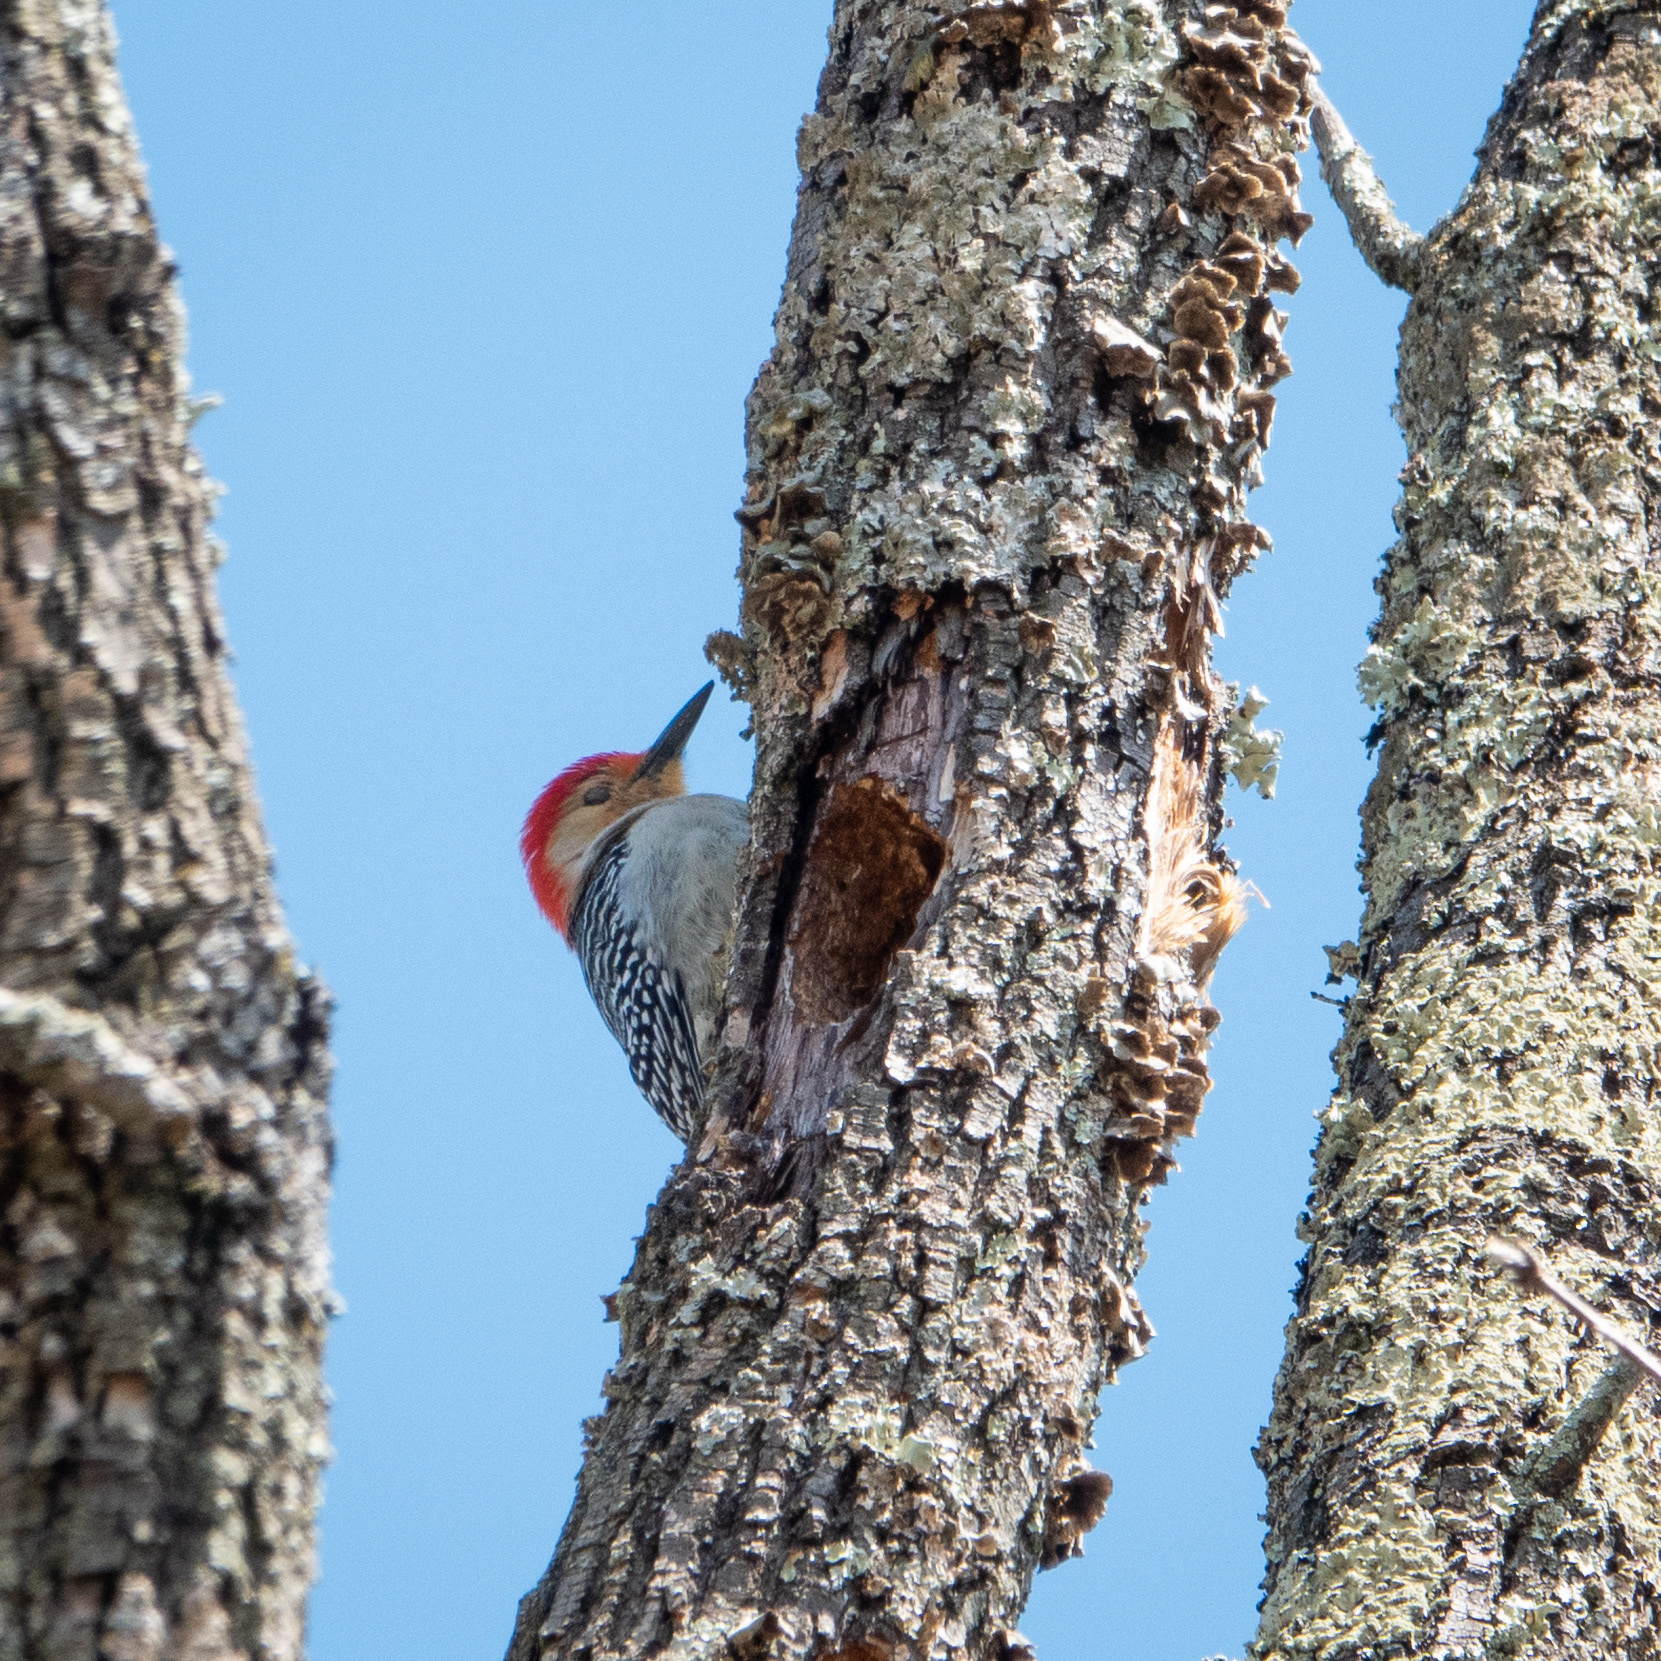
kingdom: Animalia
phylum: Chordata
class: Aves
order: Piciformes
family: Picidae
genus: Melanerpes
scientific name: Melanerpes carolinus
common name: Red-bellied woodpecker
